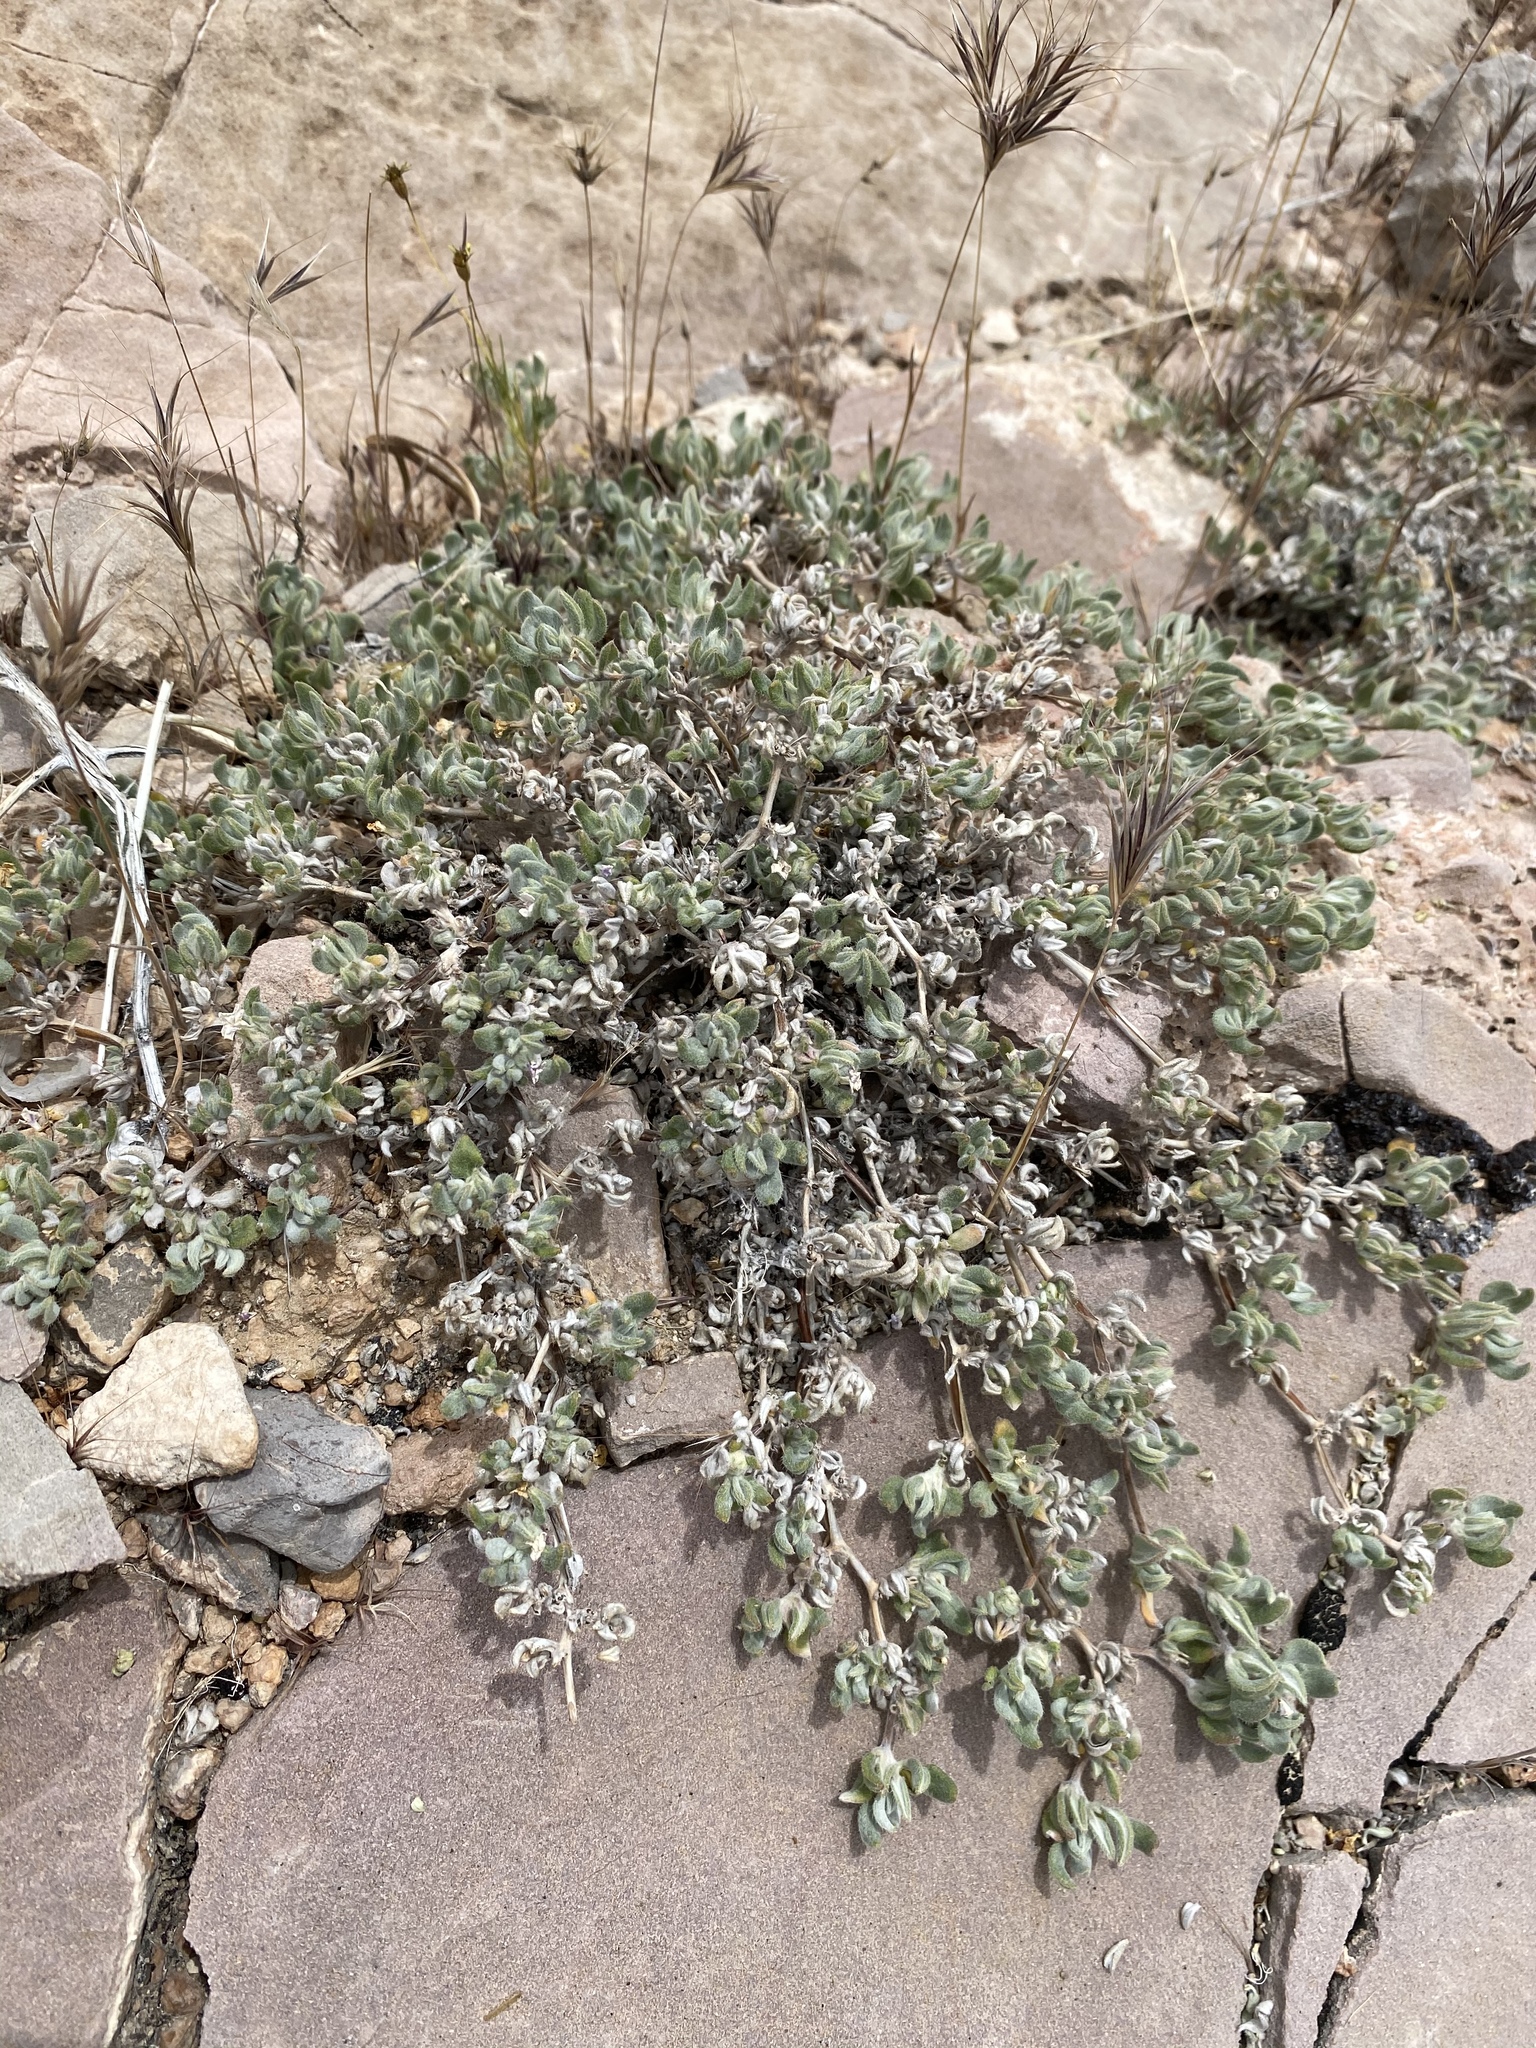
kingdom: Plantae
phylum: Tracheophyta
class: Magnoliopsida
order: Boraginales
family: Ehretiaceae
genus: Tiquilia
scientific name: Tiquilia canescens
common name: Hairy tiquilia
